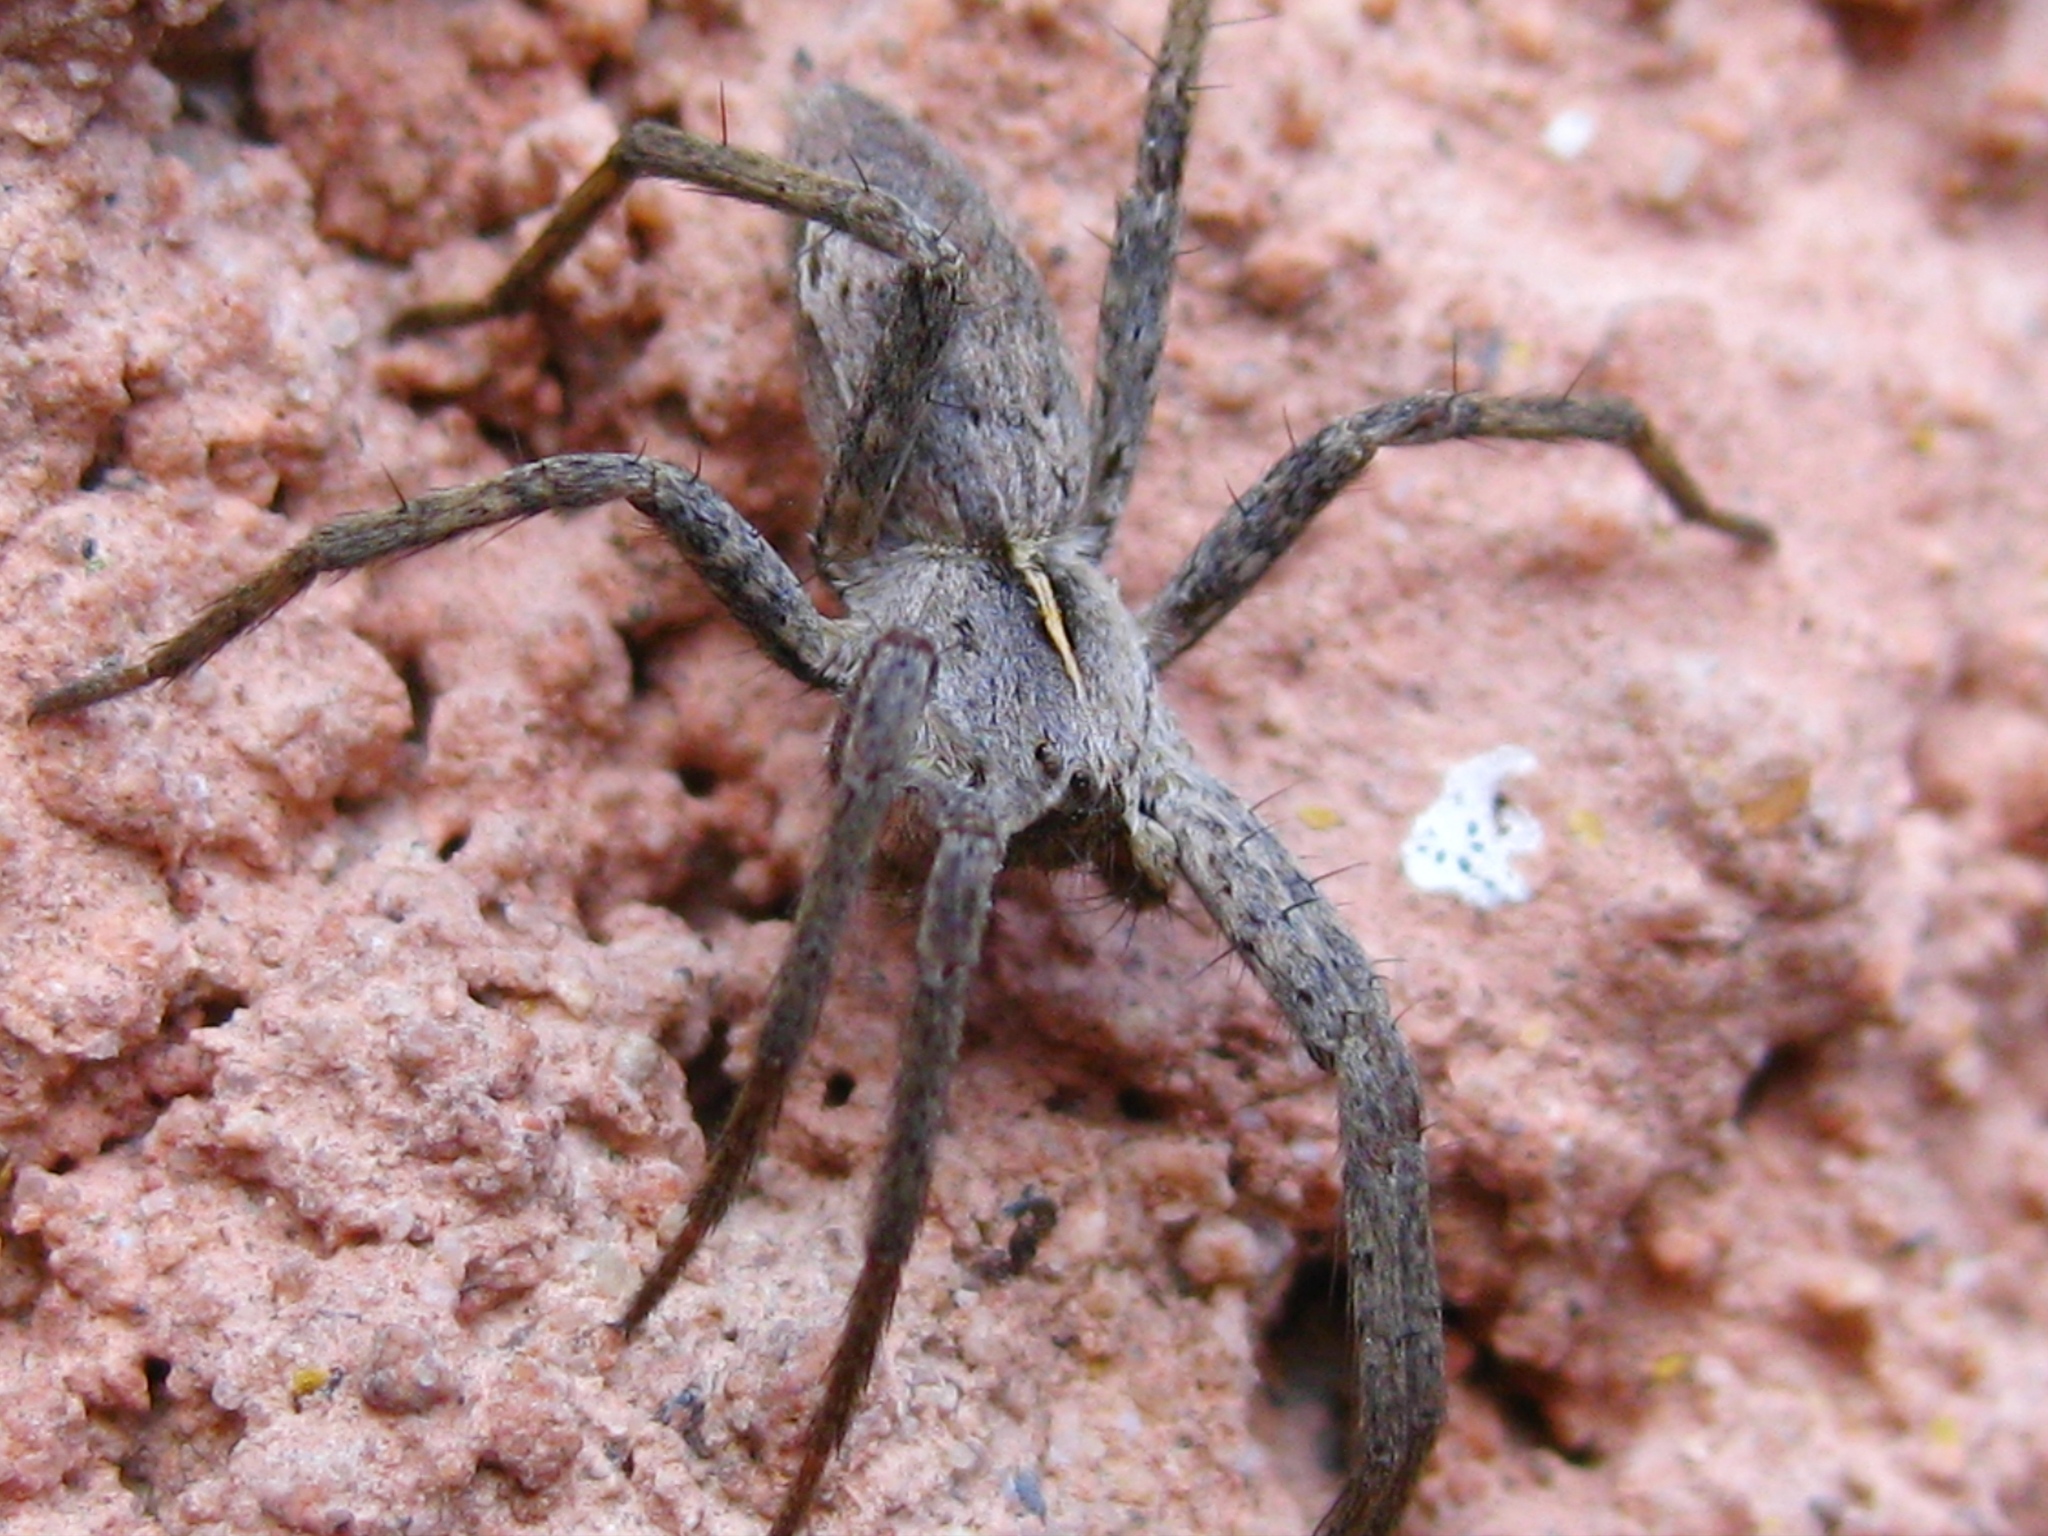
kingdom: Animalia
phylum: Arthropoda
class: Arachnida
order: Araneae
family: Pisauridae
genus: Pisaura
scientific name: Pisaura
